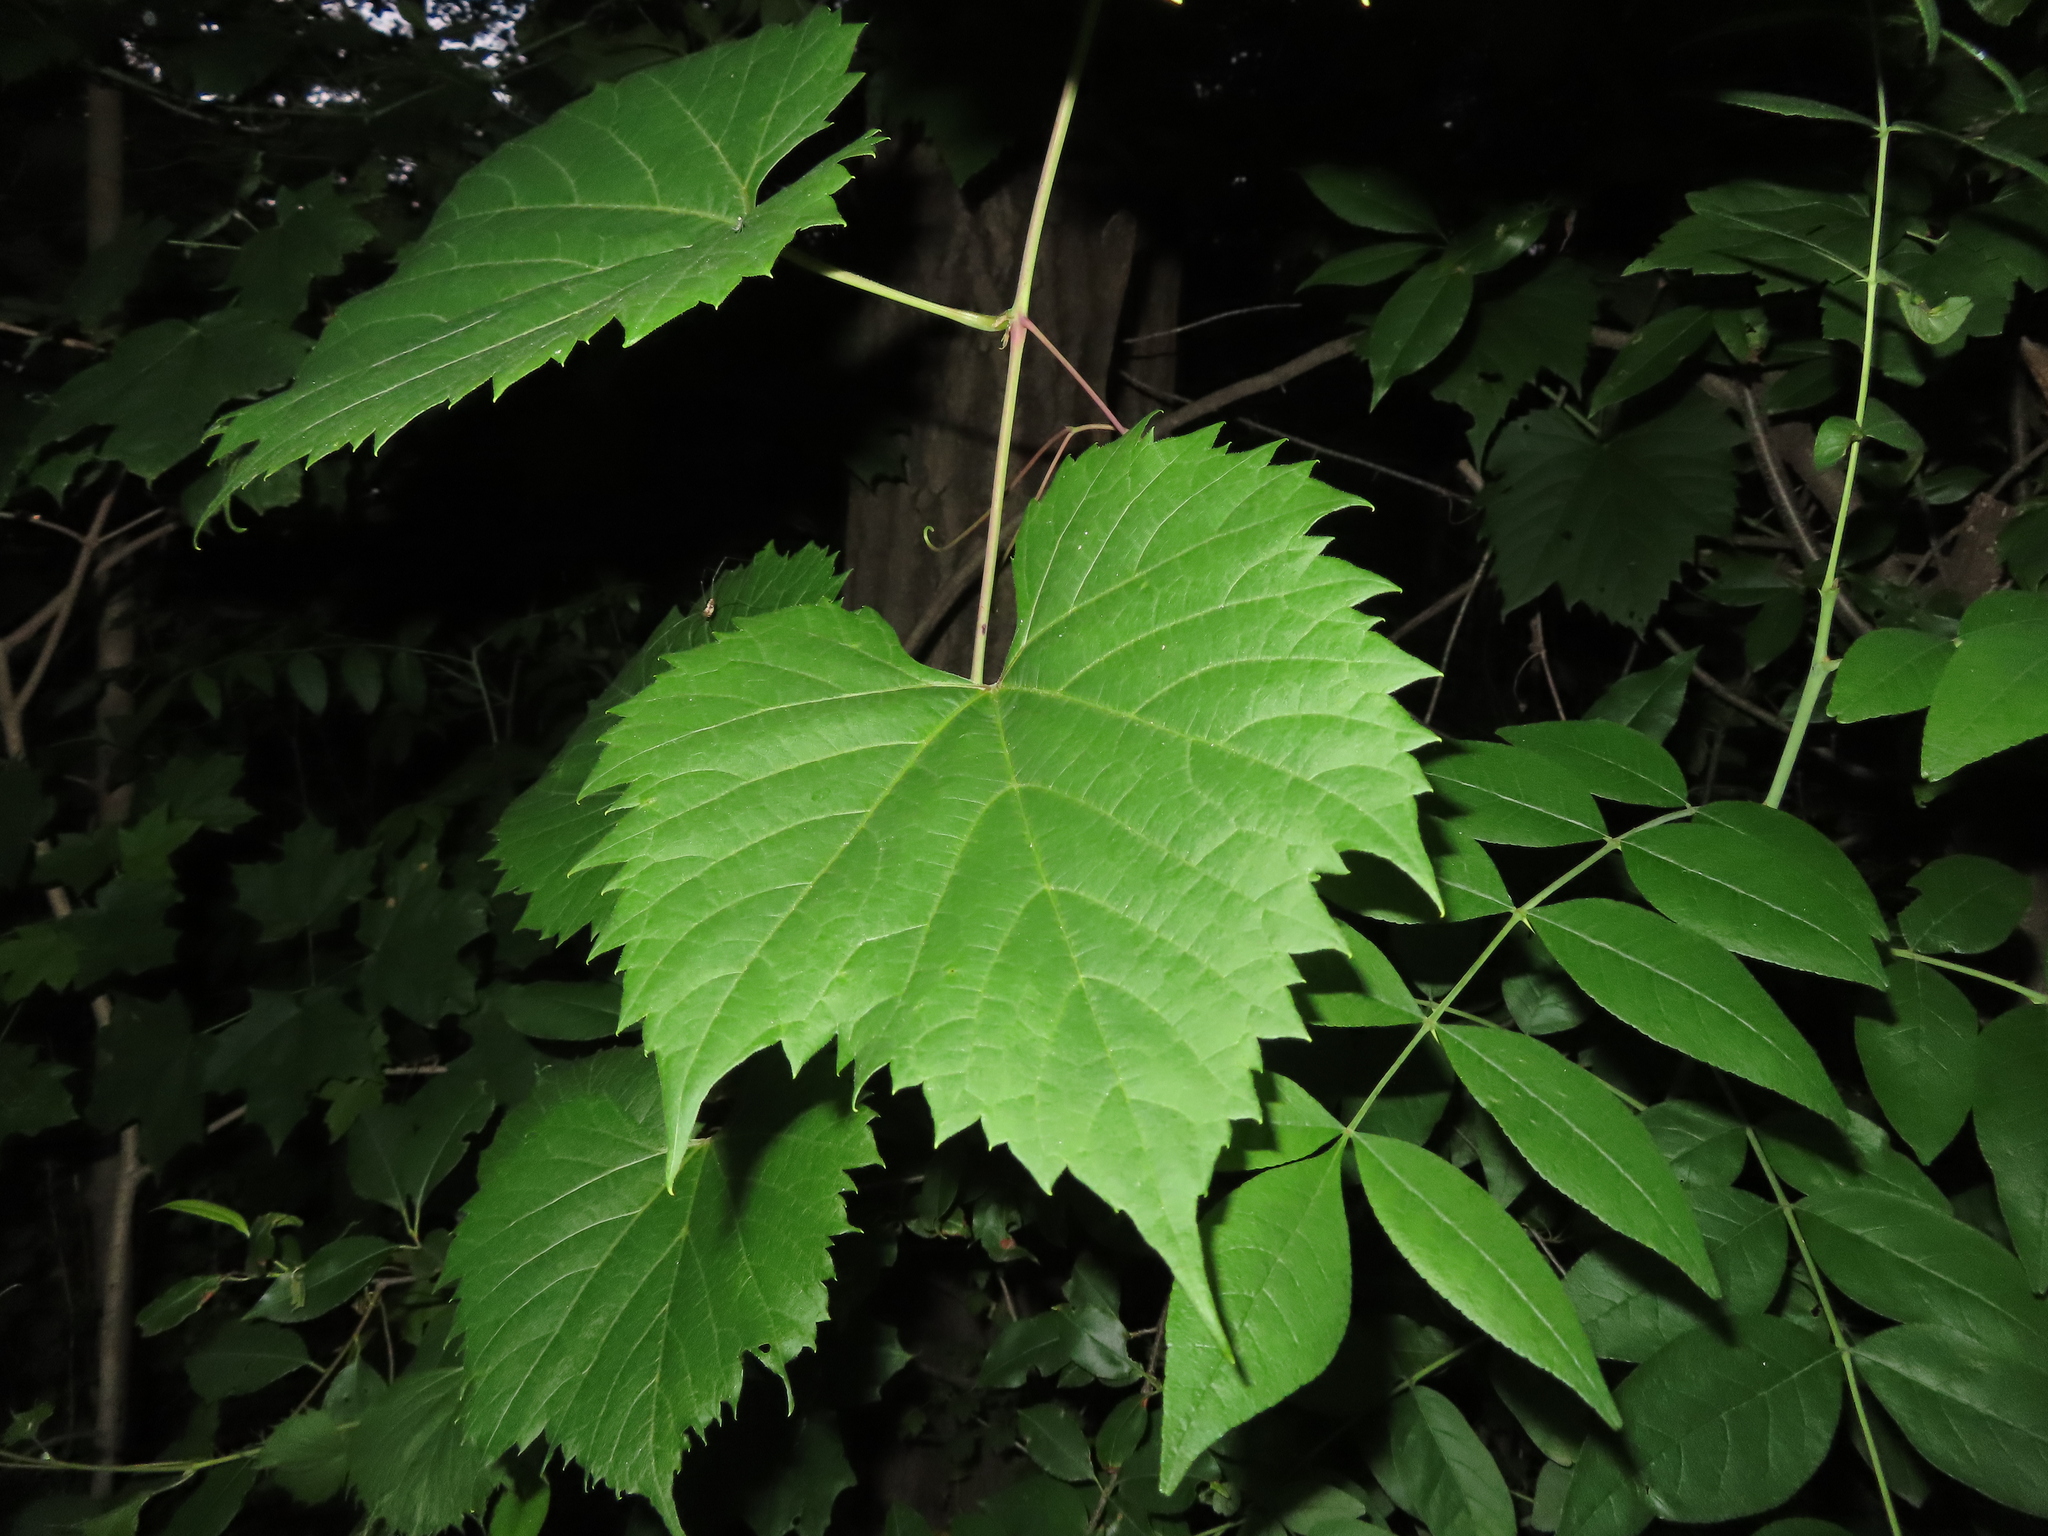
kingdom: Plantae
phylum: Tracheophyta
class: Magnoliopsida
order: Vitales
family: Vitaceae
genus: Vitis
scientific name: Vitis riparia
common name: Frost grape
